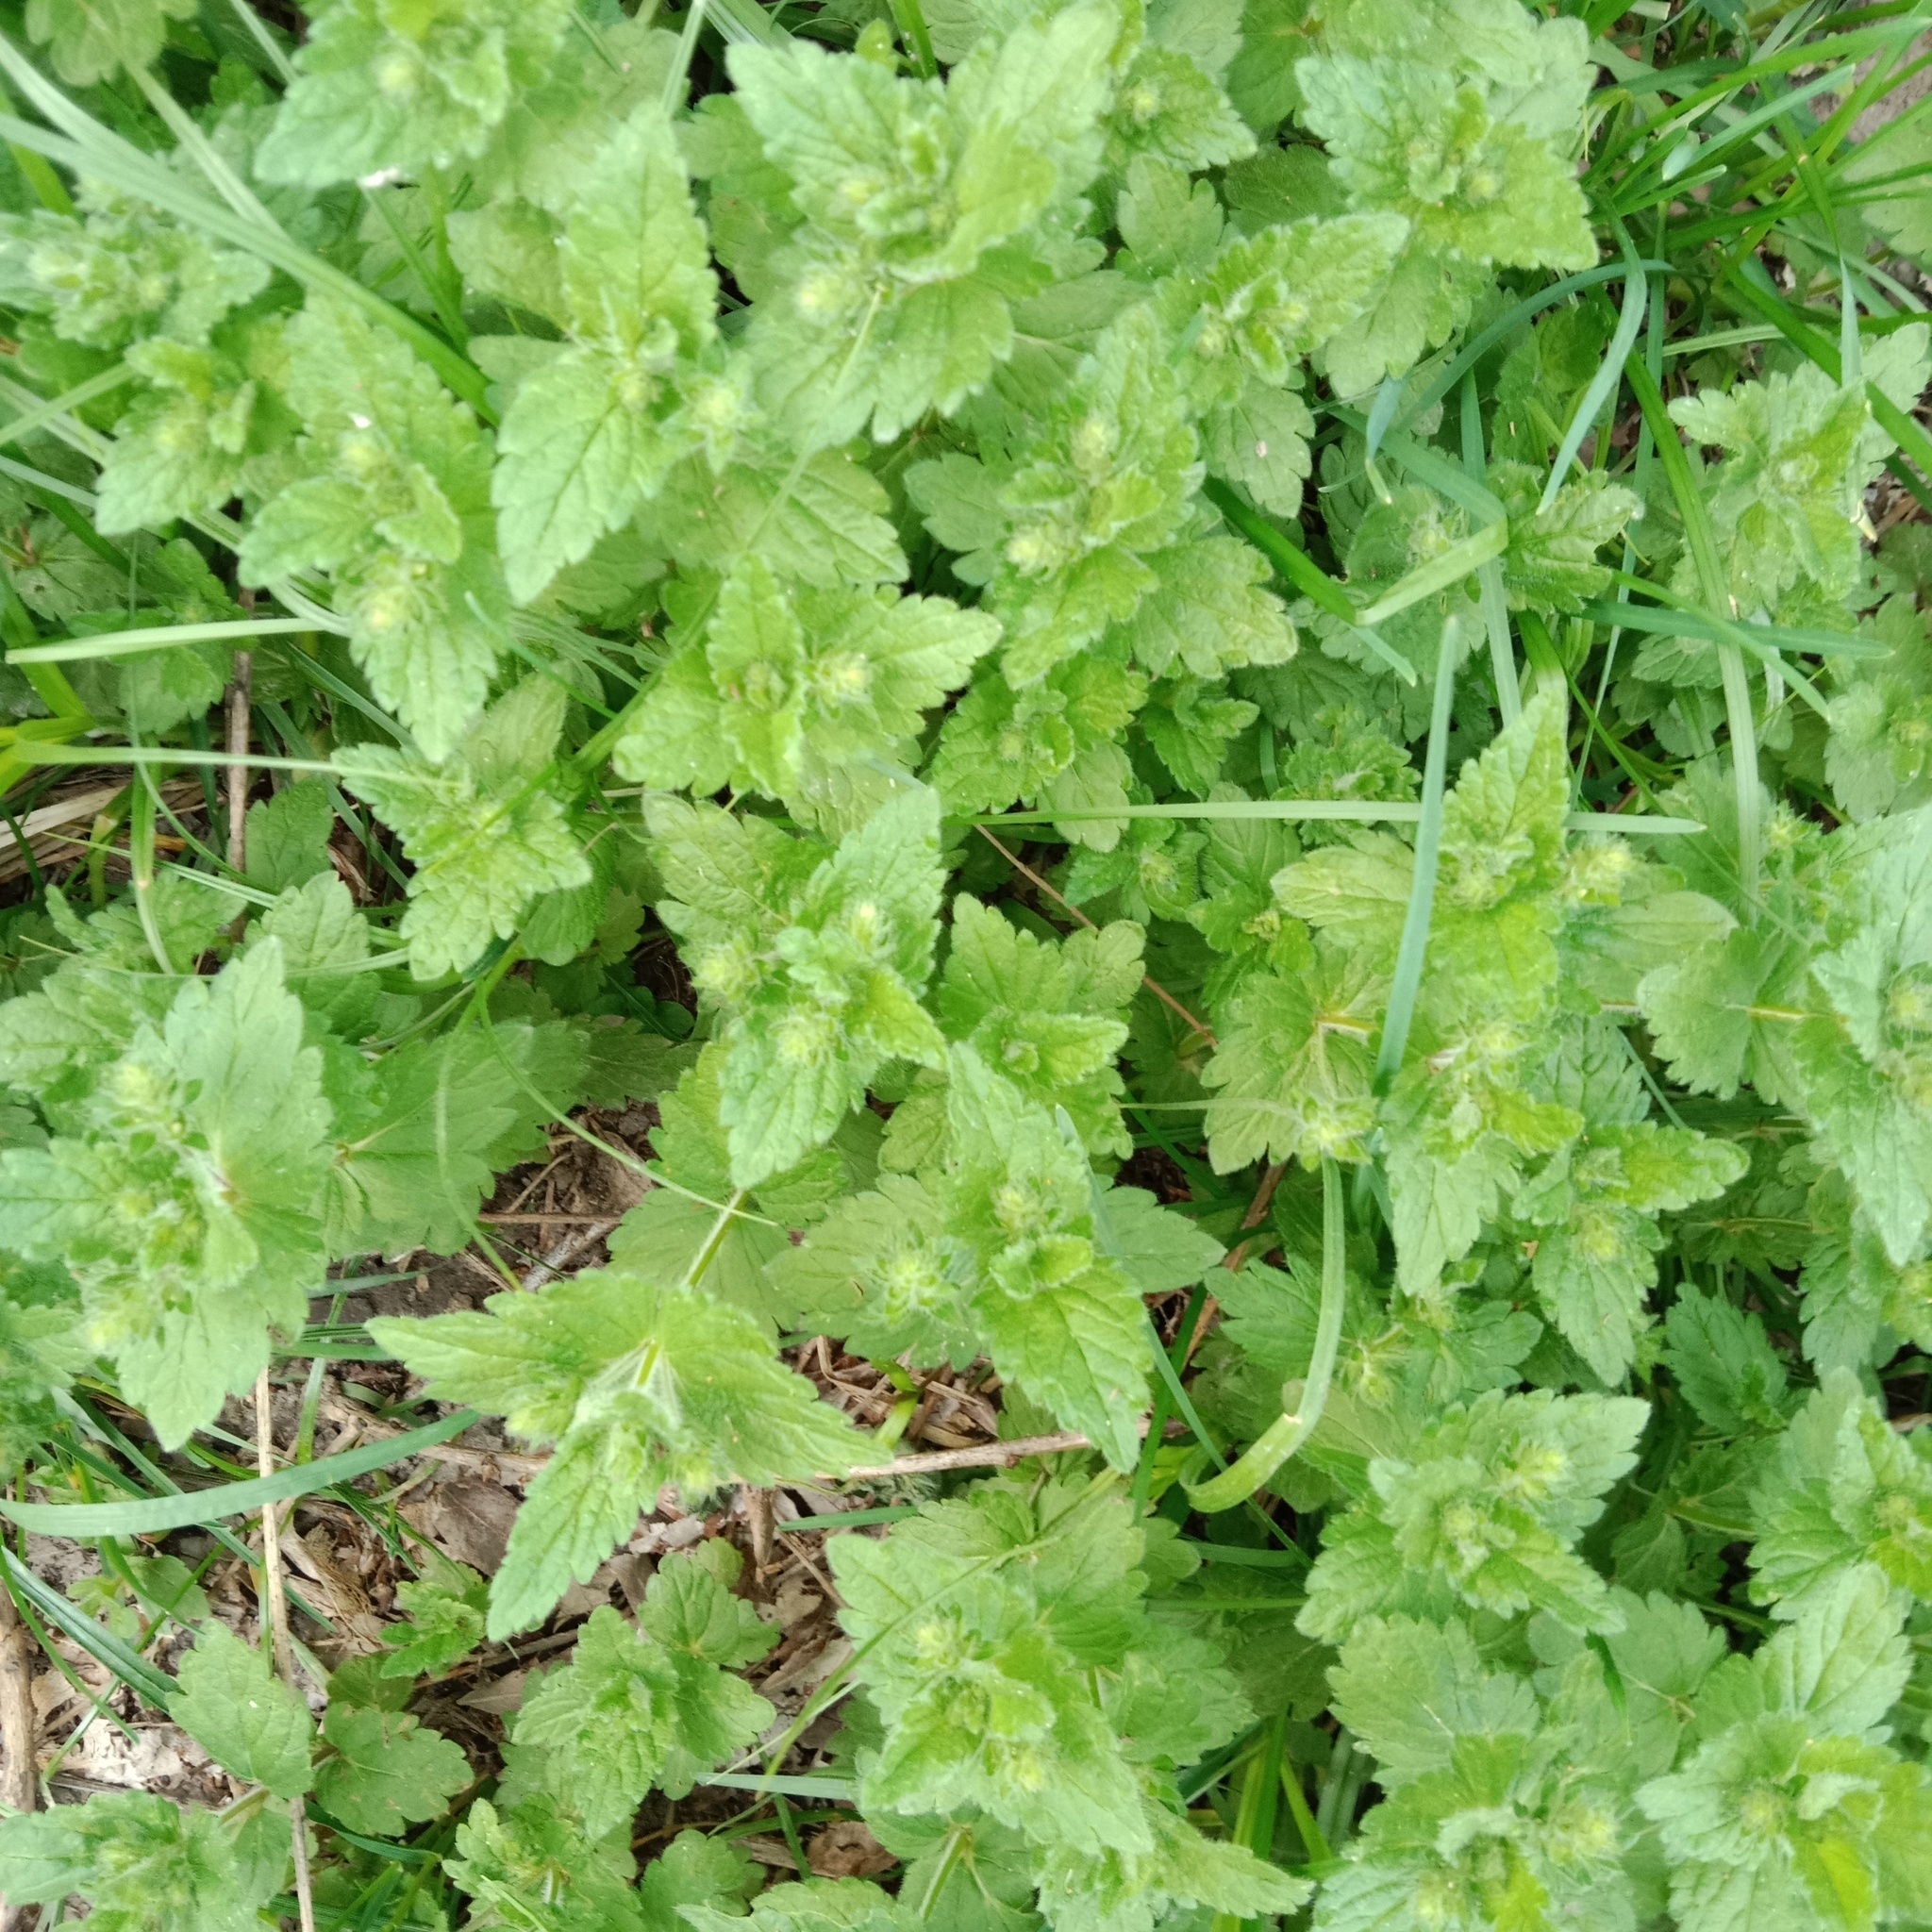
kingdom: Plantae
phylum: Tracheophyta
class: Magnoliopsida
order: Lamiales
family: Plantaginaceae
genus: Veronica
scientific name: Veronica chamaedrys
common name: Germander speedwell
